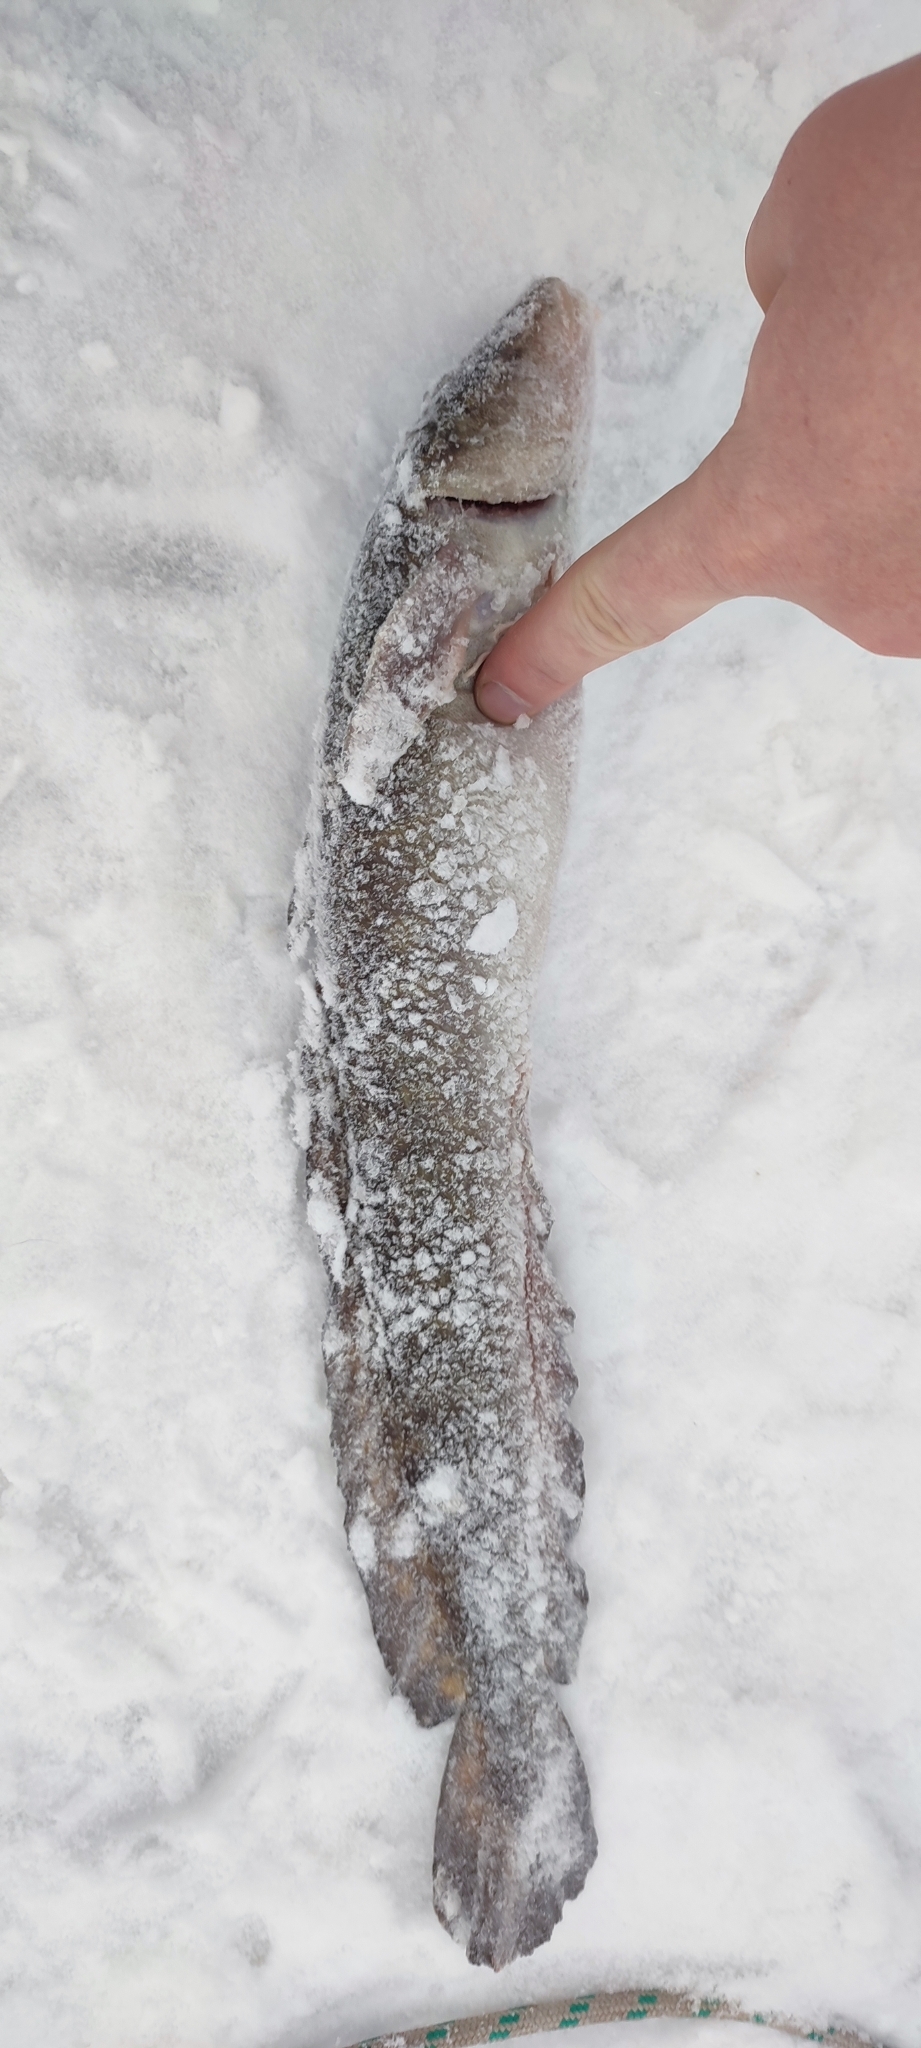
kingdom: Animalia
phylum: Chordata
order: Gadiformes
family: Lotidae
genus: Lota
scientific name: Lota lota
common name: Burbot
